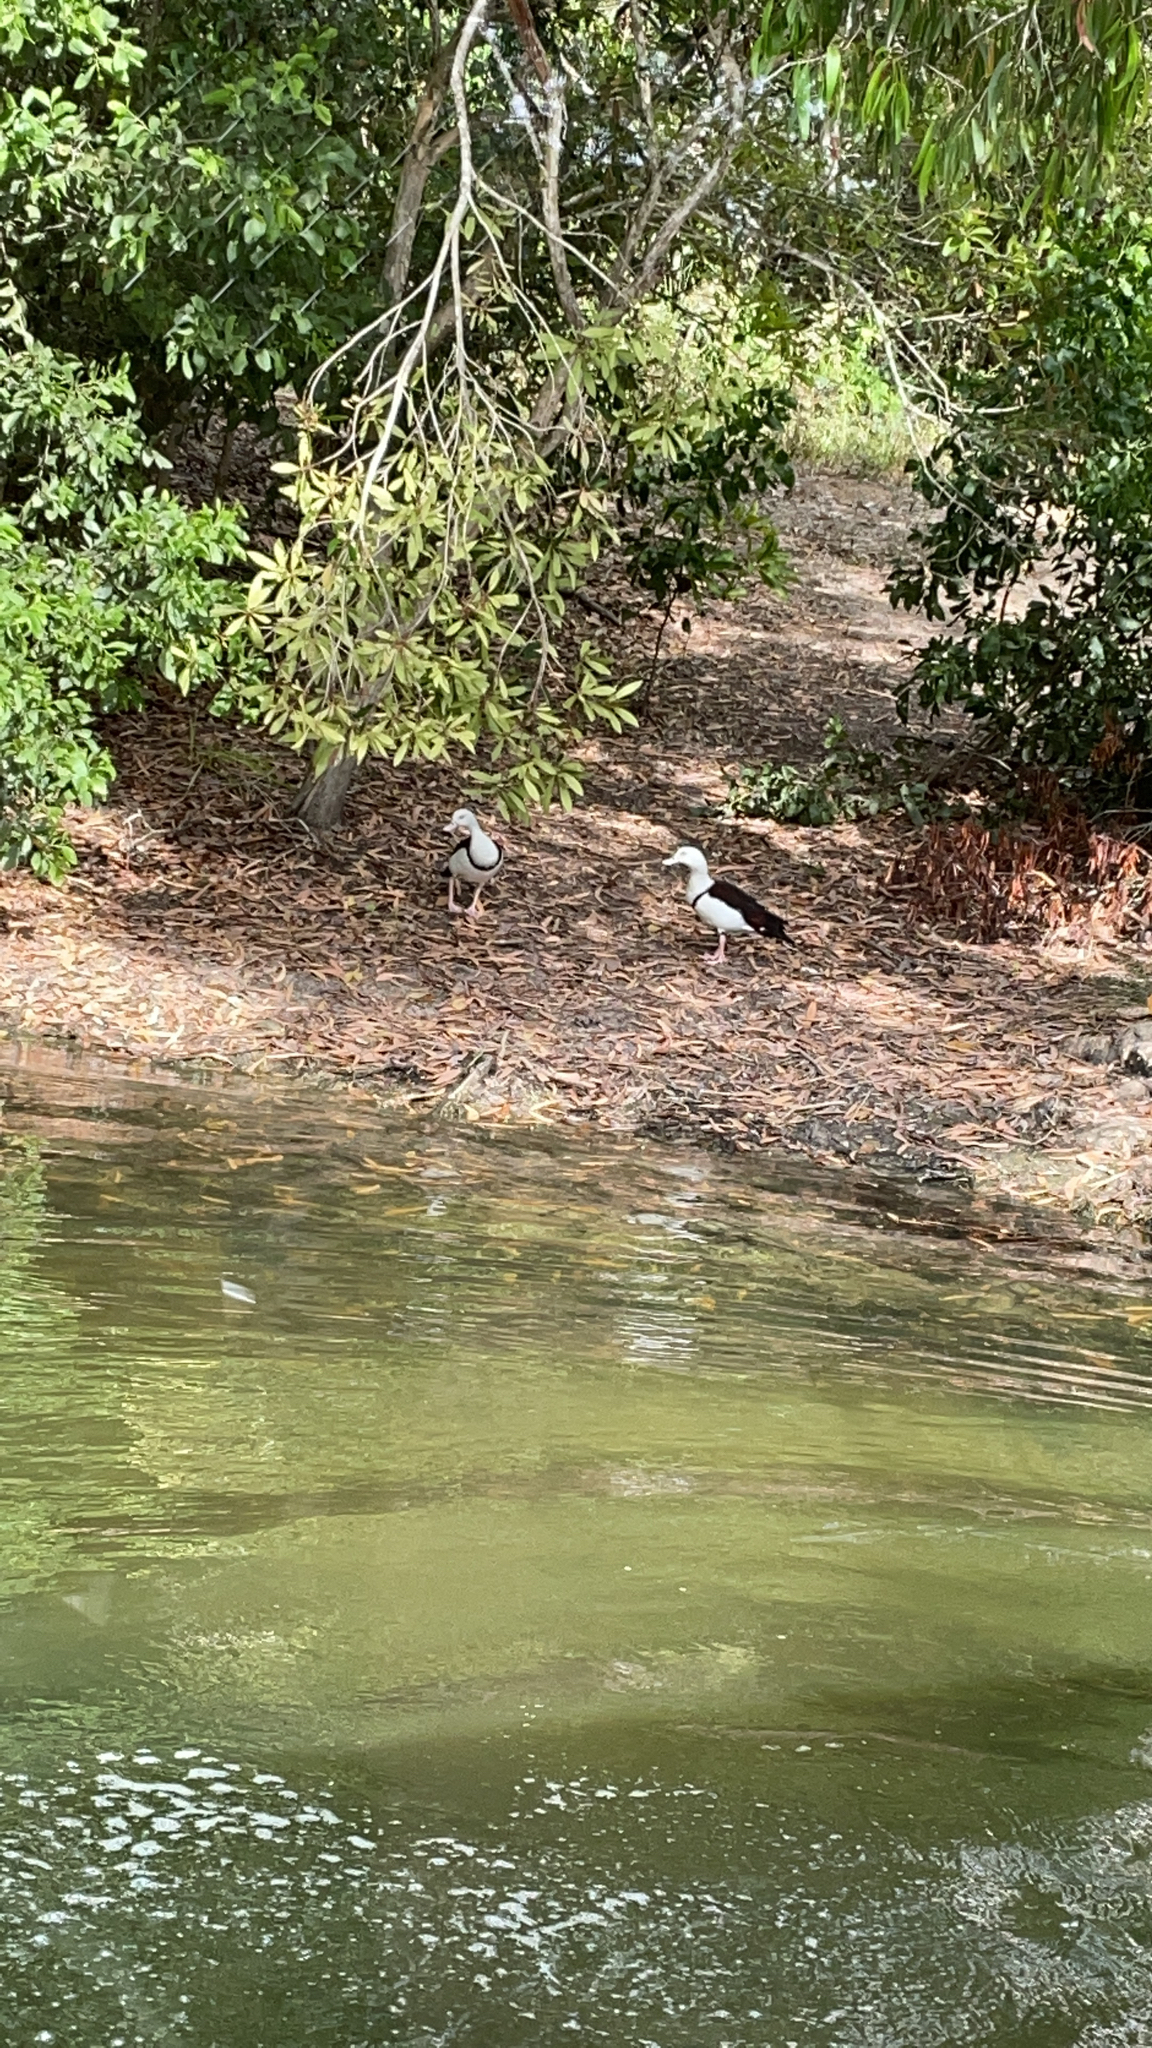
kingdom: Animalia
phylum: Chordata
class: Aves
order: Anseriformes
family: Anatidae
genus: Radjah
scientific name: Radjah radjah
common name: Radjah shelduck
